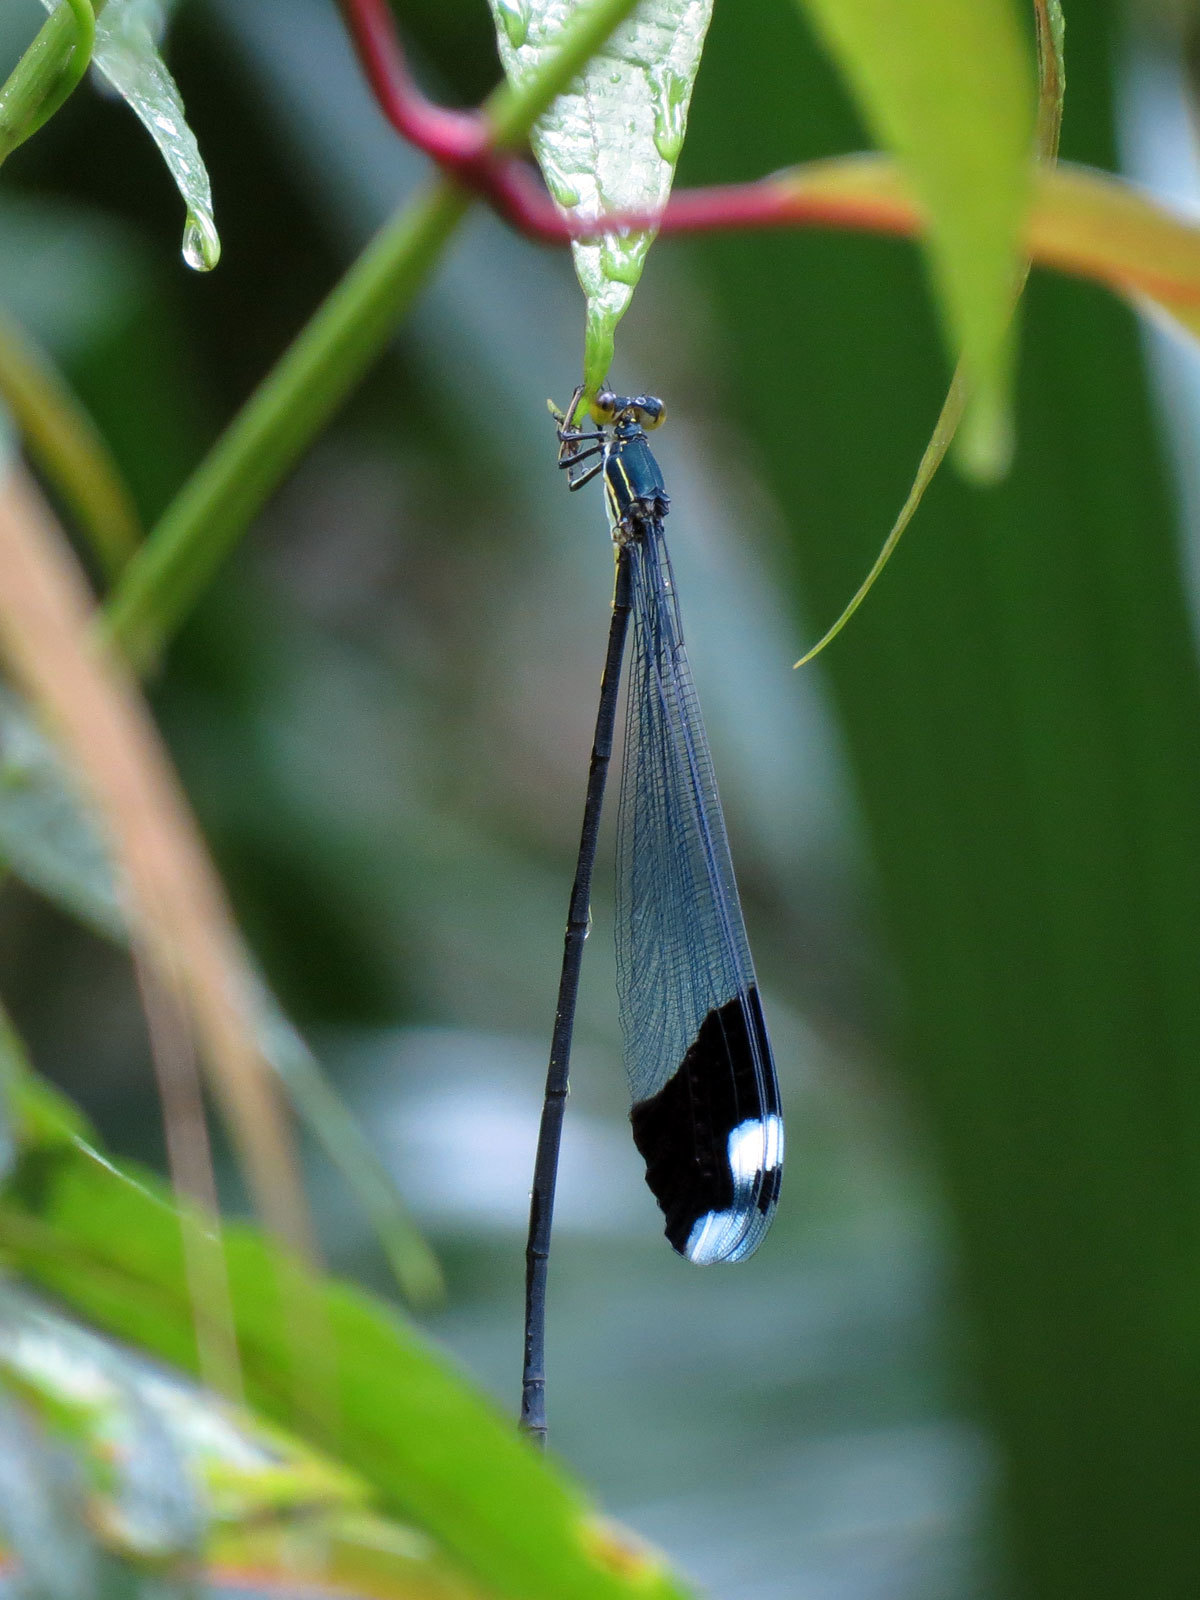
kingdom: Animalia
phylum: Arthropoda
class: Insecta
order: Odonata
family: Coenagrionidae
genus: Megaloprepus
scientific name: Megaloprepus caerulatus
